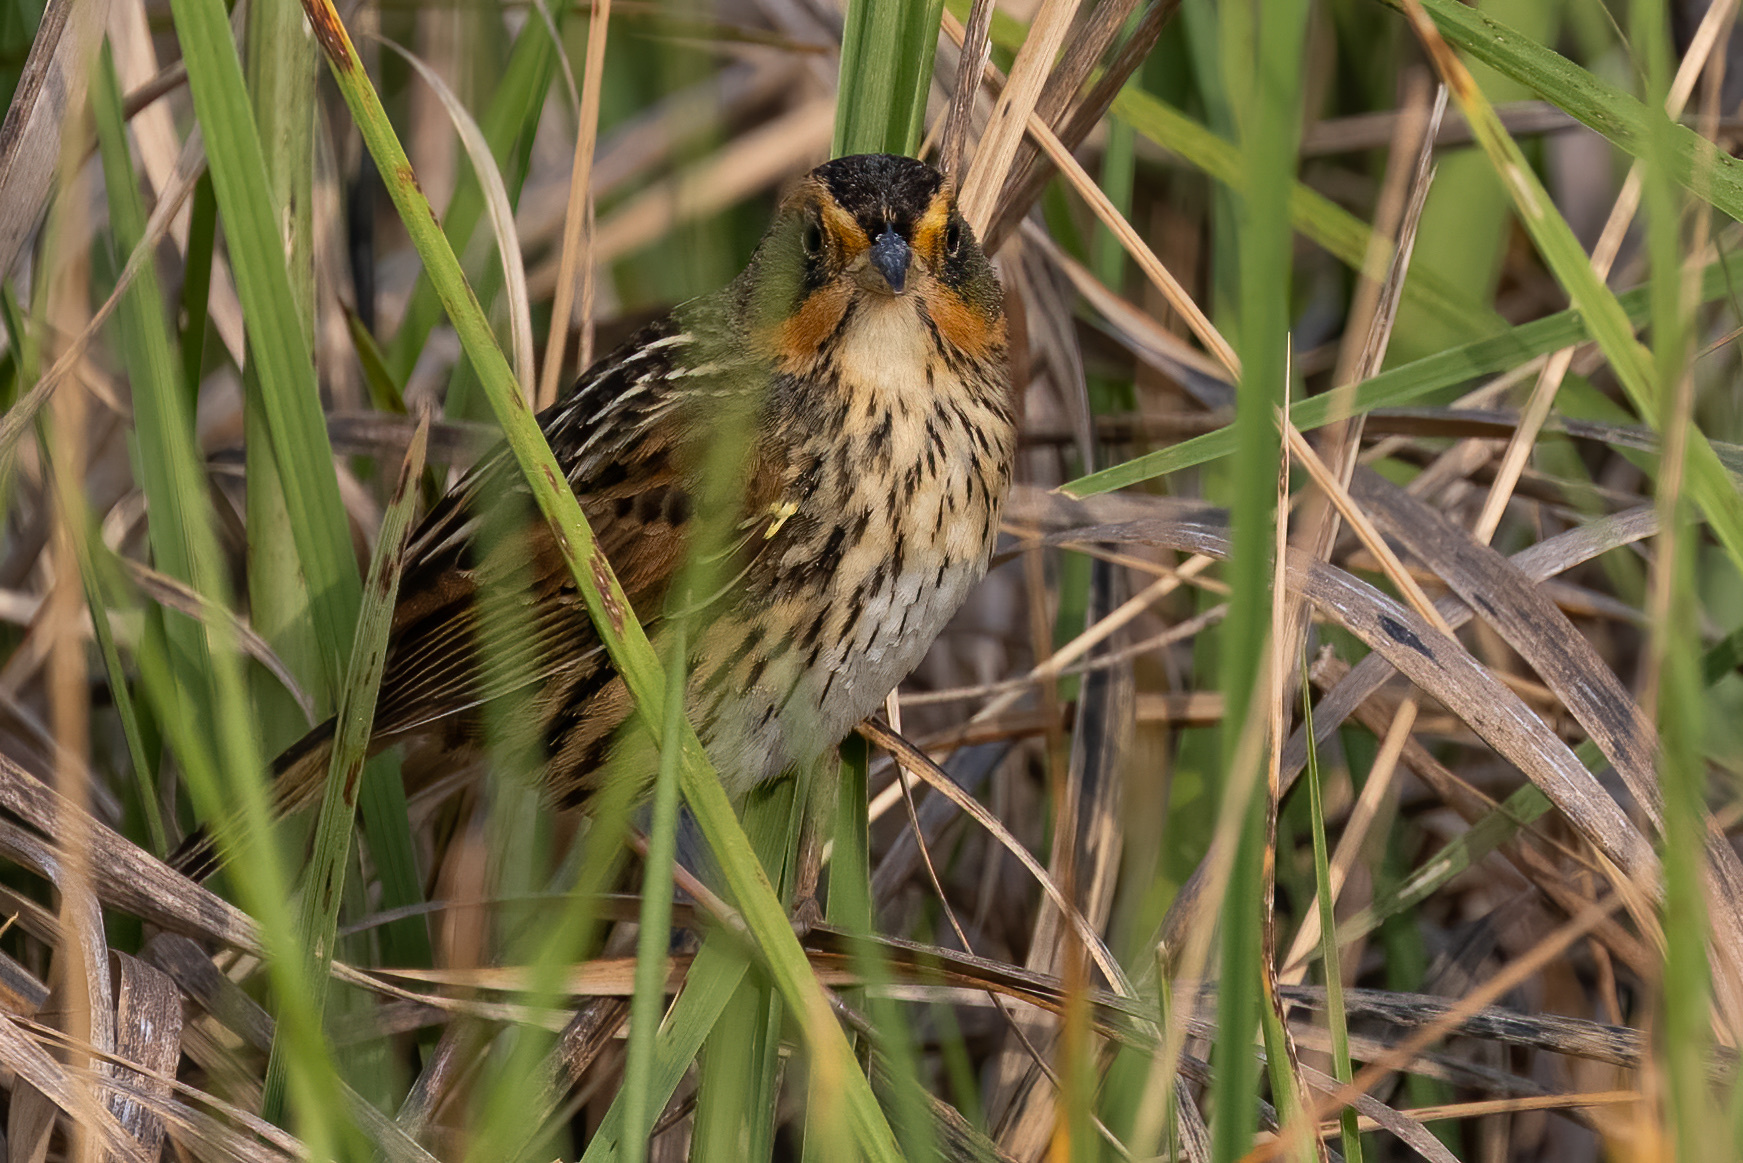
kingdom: Animalia
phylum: Chordata
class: Aves
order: Passeriformes
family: Passerellidae
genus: Ammospiza
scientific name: Ammospiza caudacuta
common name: Saltmarsh sparrow
